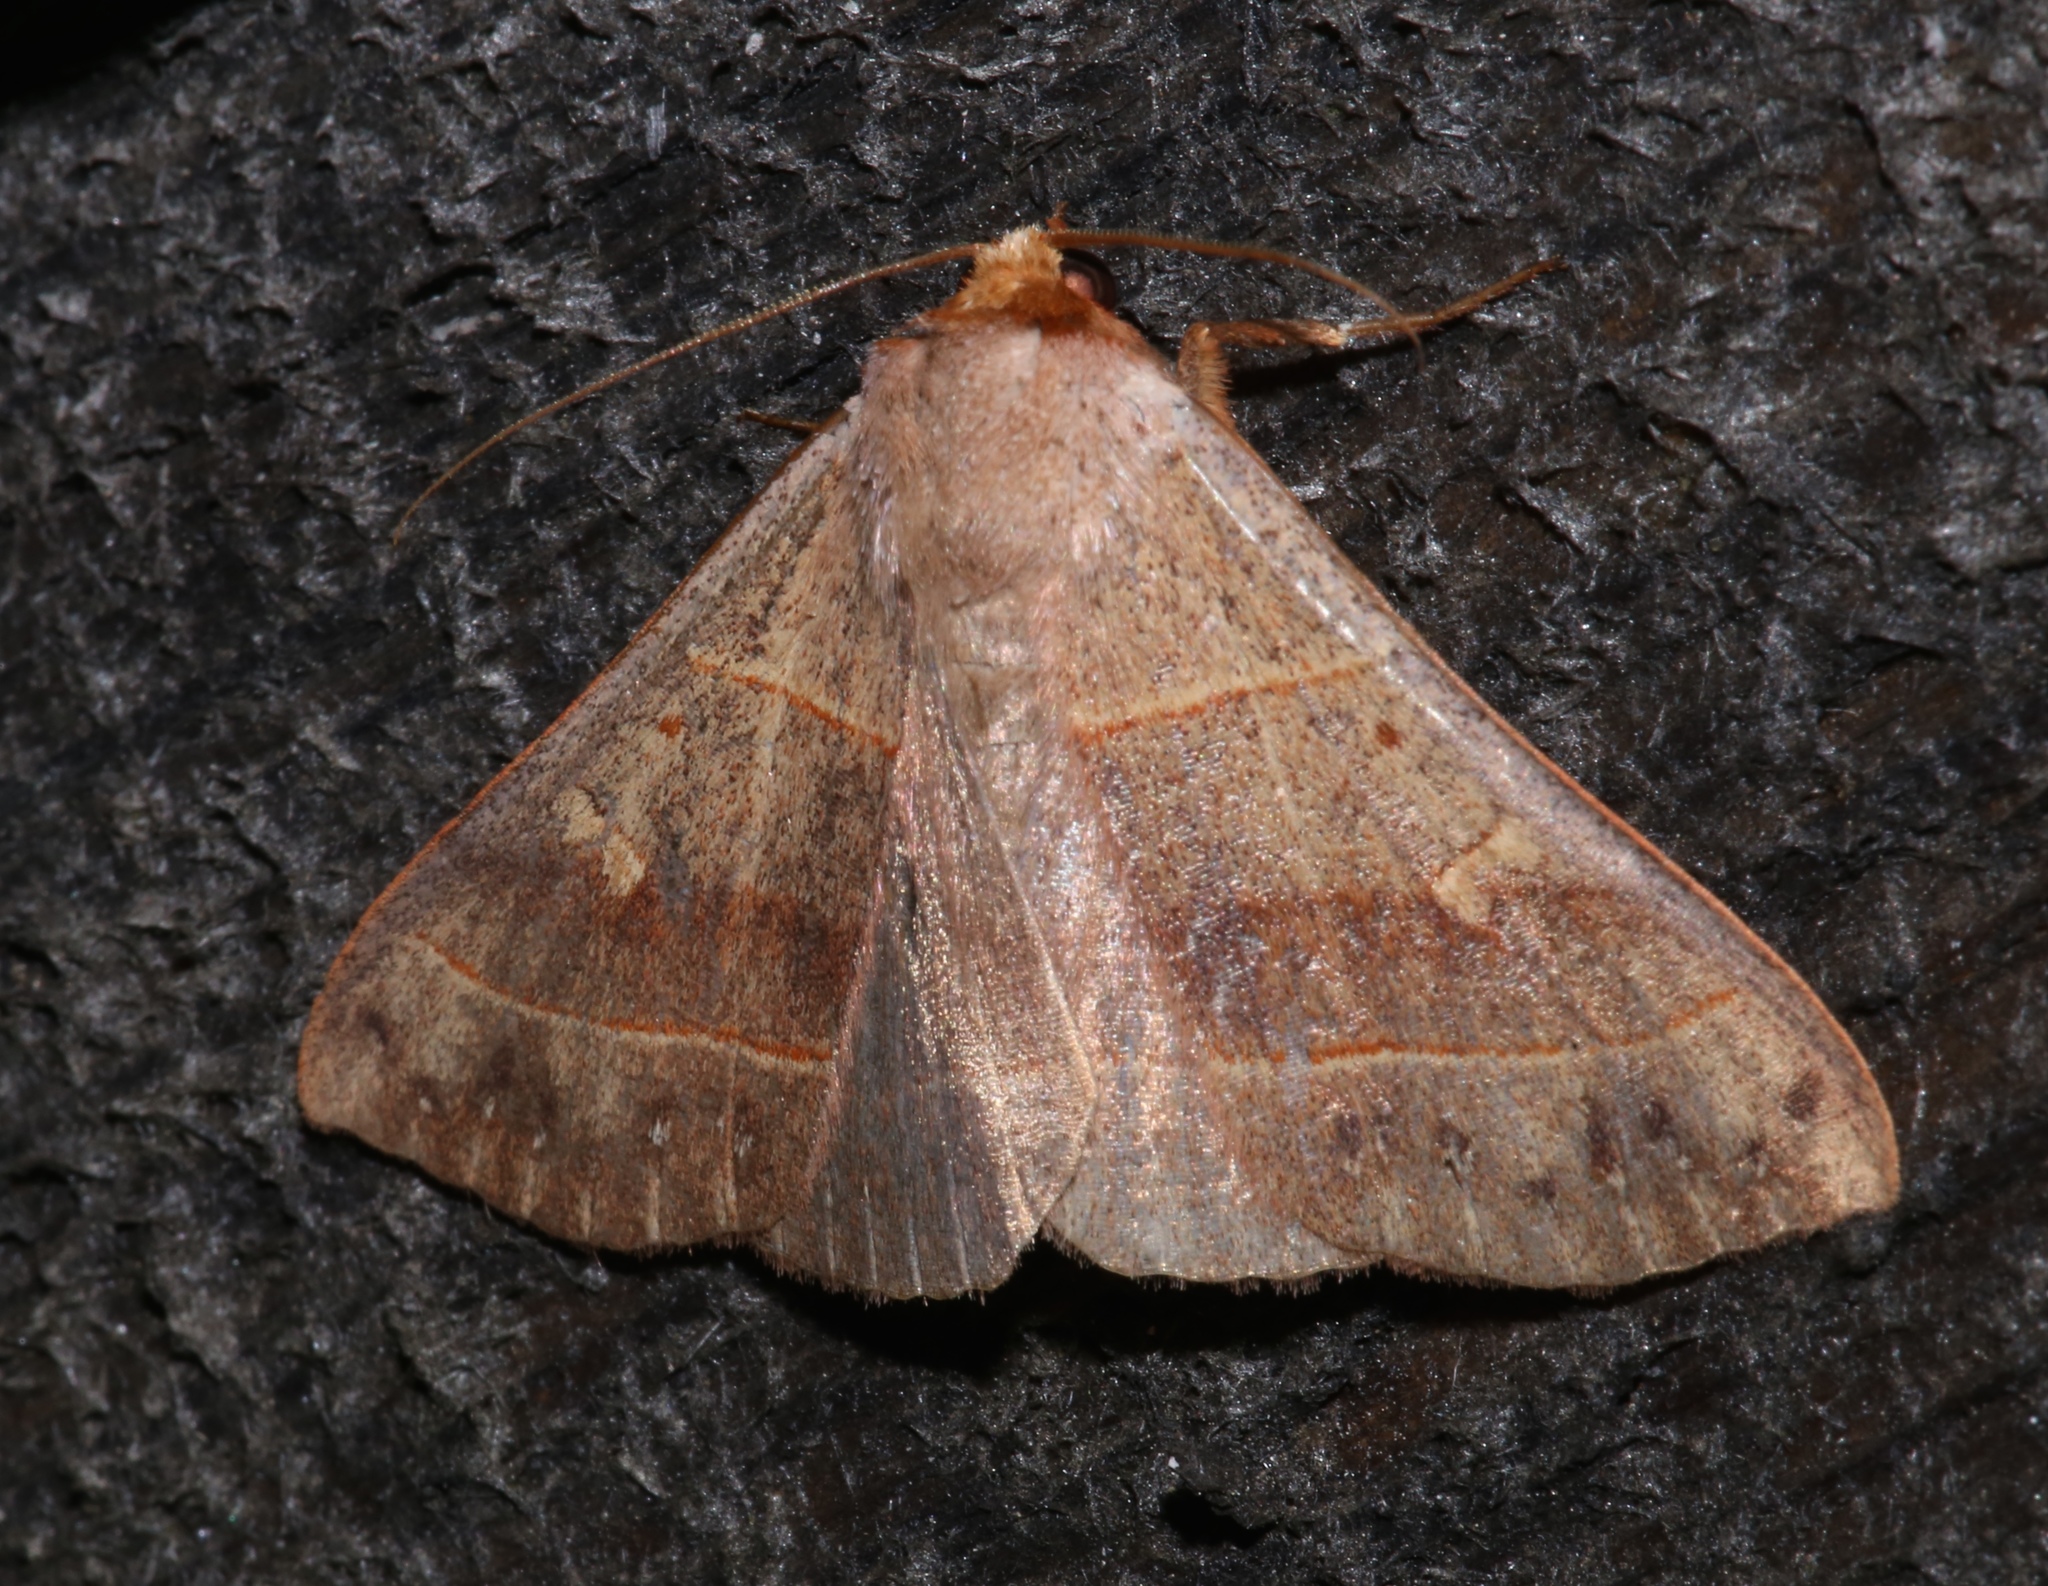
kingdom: Animalia
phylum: Arthropoda
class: Insecta
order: Lepidoptera
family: Erebidae
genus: Panopoda
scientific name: Panopoda rufimargo
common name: Red-lined panopoda moth
